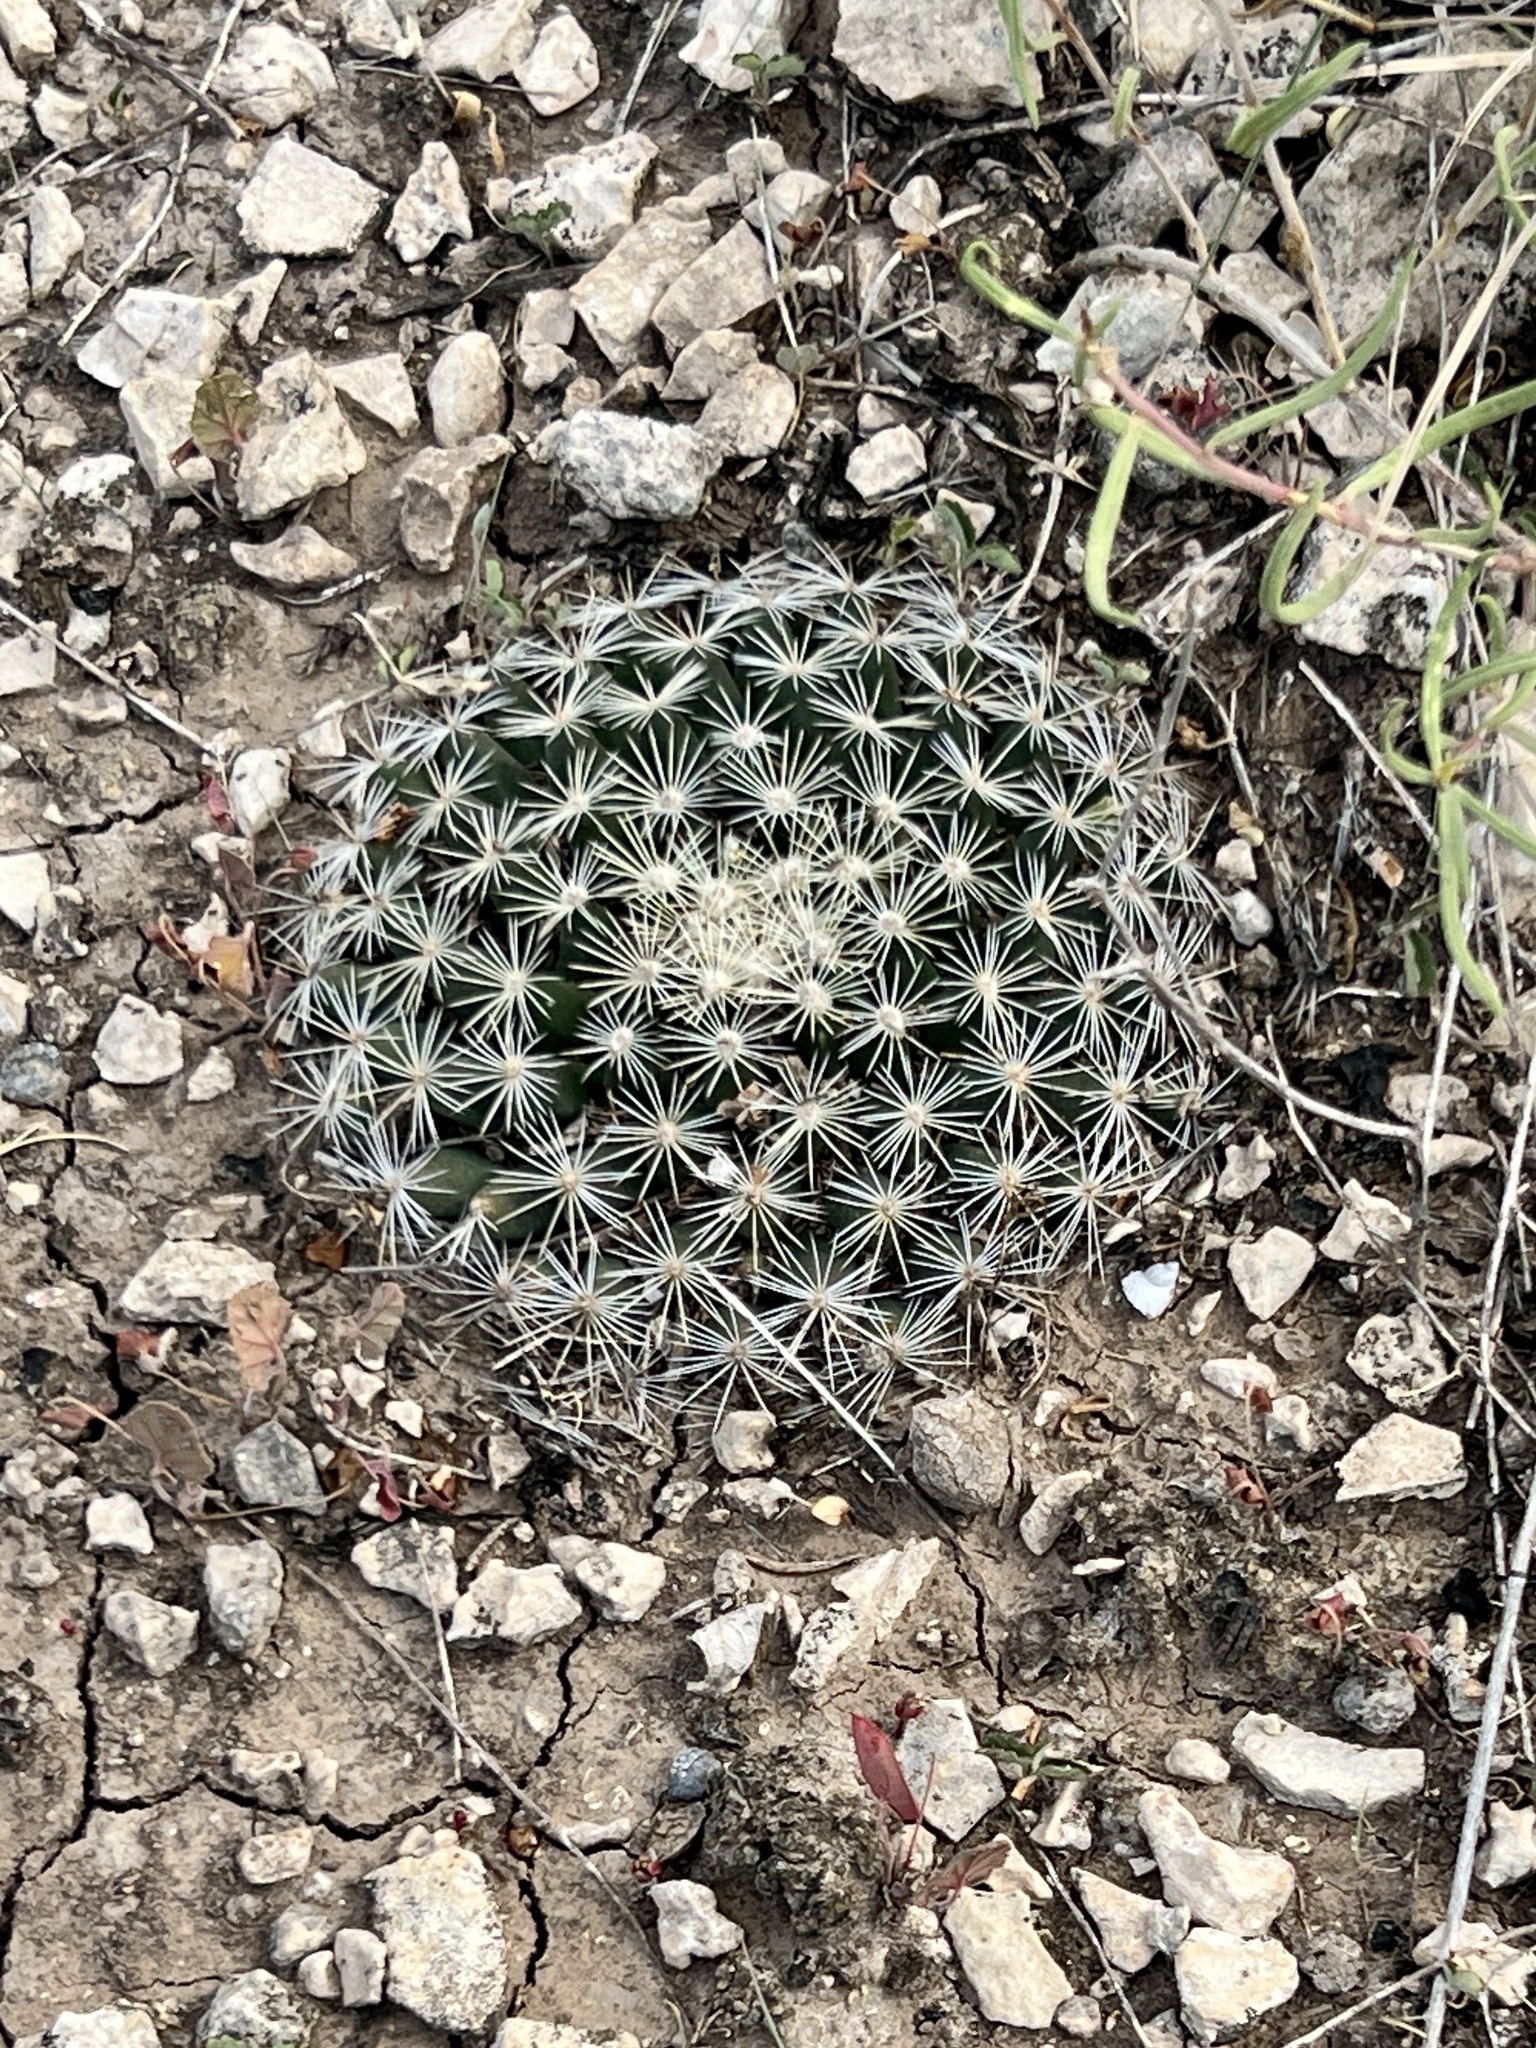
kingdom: Plantae
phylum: Tracheophyta
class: Magnoliopsida
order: Caryophyllales
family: Cactaceae
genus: Mammillaria
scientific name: Mammillaria heyderi
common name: Little nipple cactus
